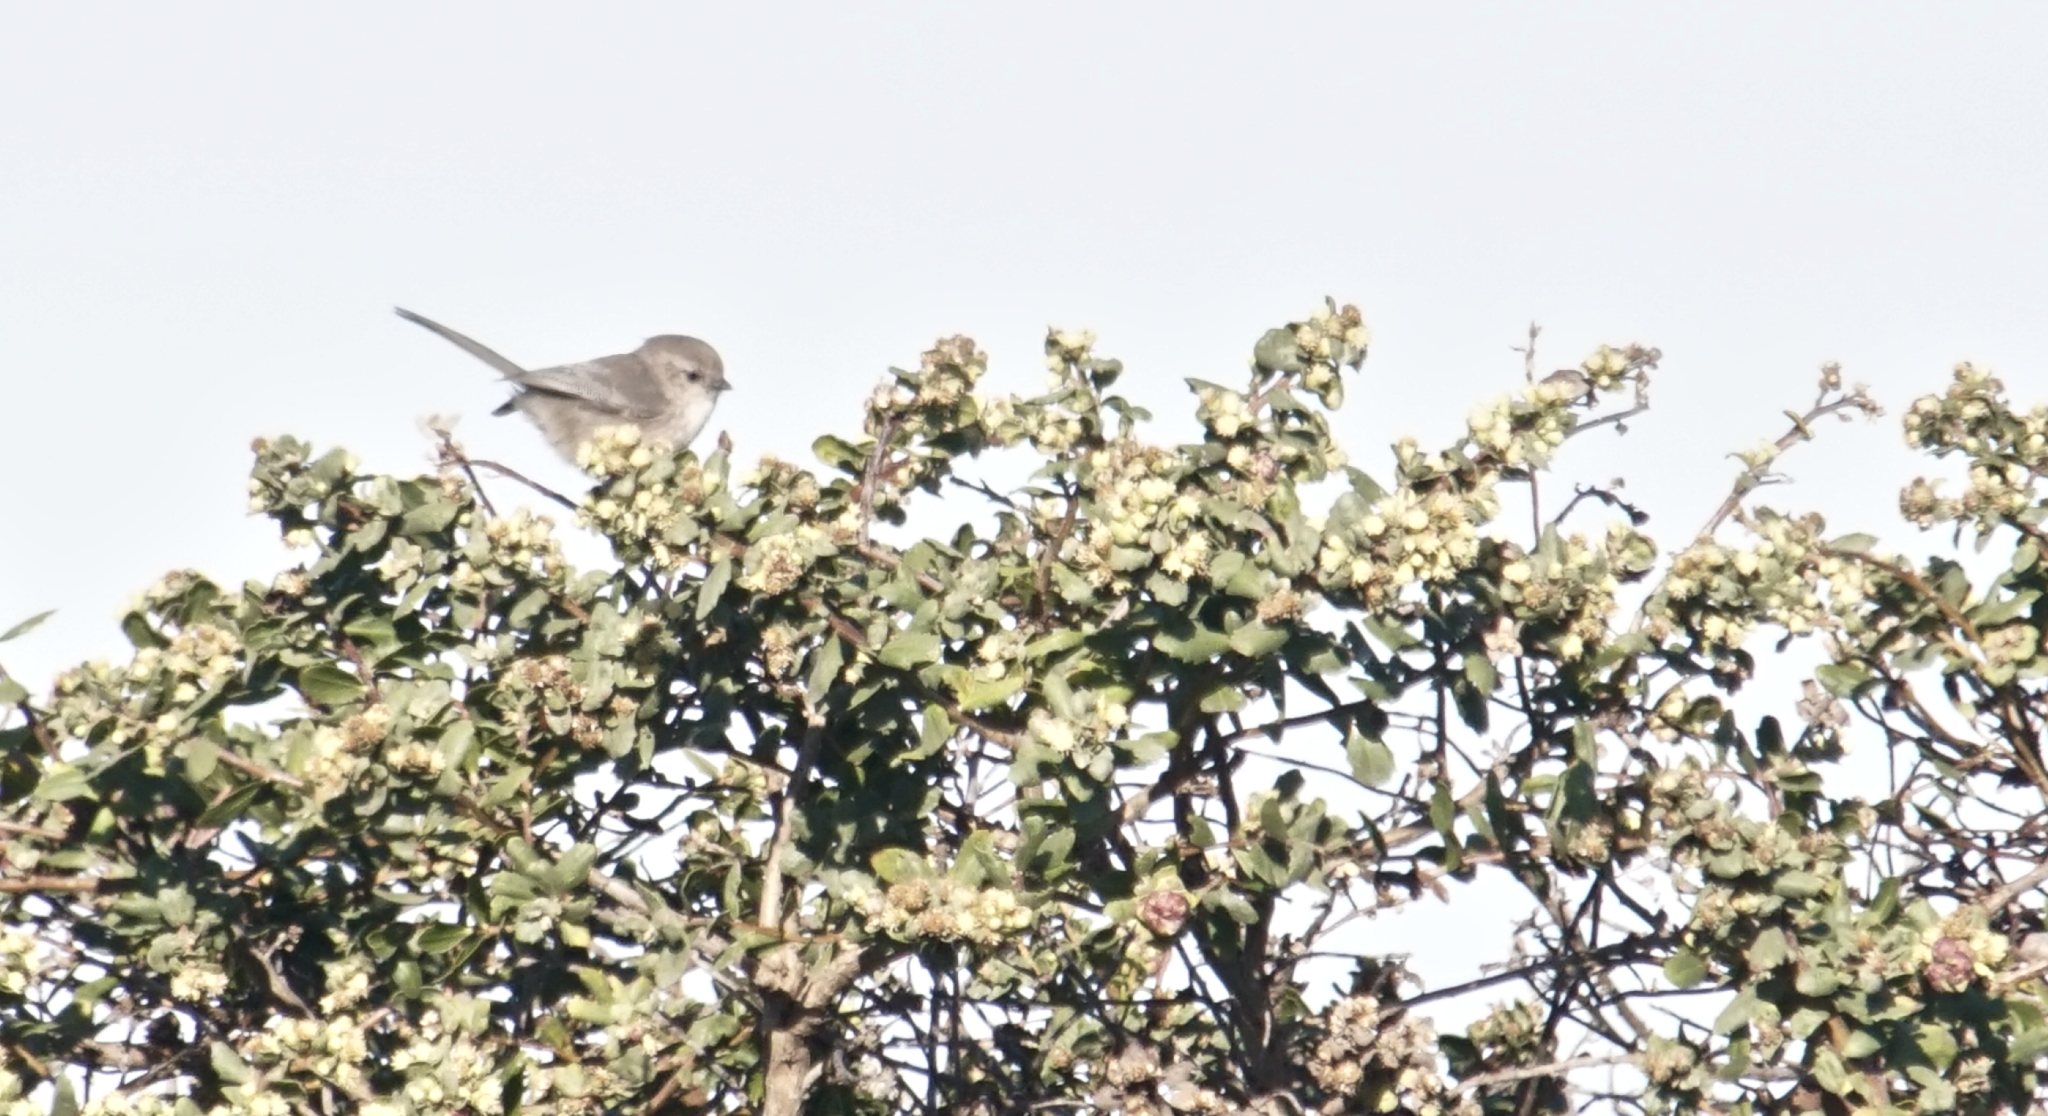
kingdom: Animalia
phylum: Chordata
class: Aves
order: Passeriformes
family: Aegithalidae
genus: Psaltriparus
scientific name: Psaltriparus minimus
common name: American bushtit
